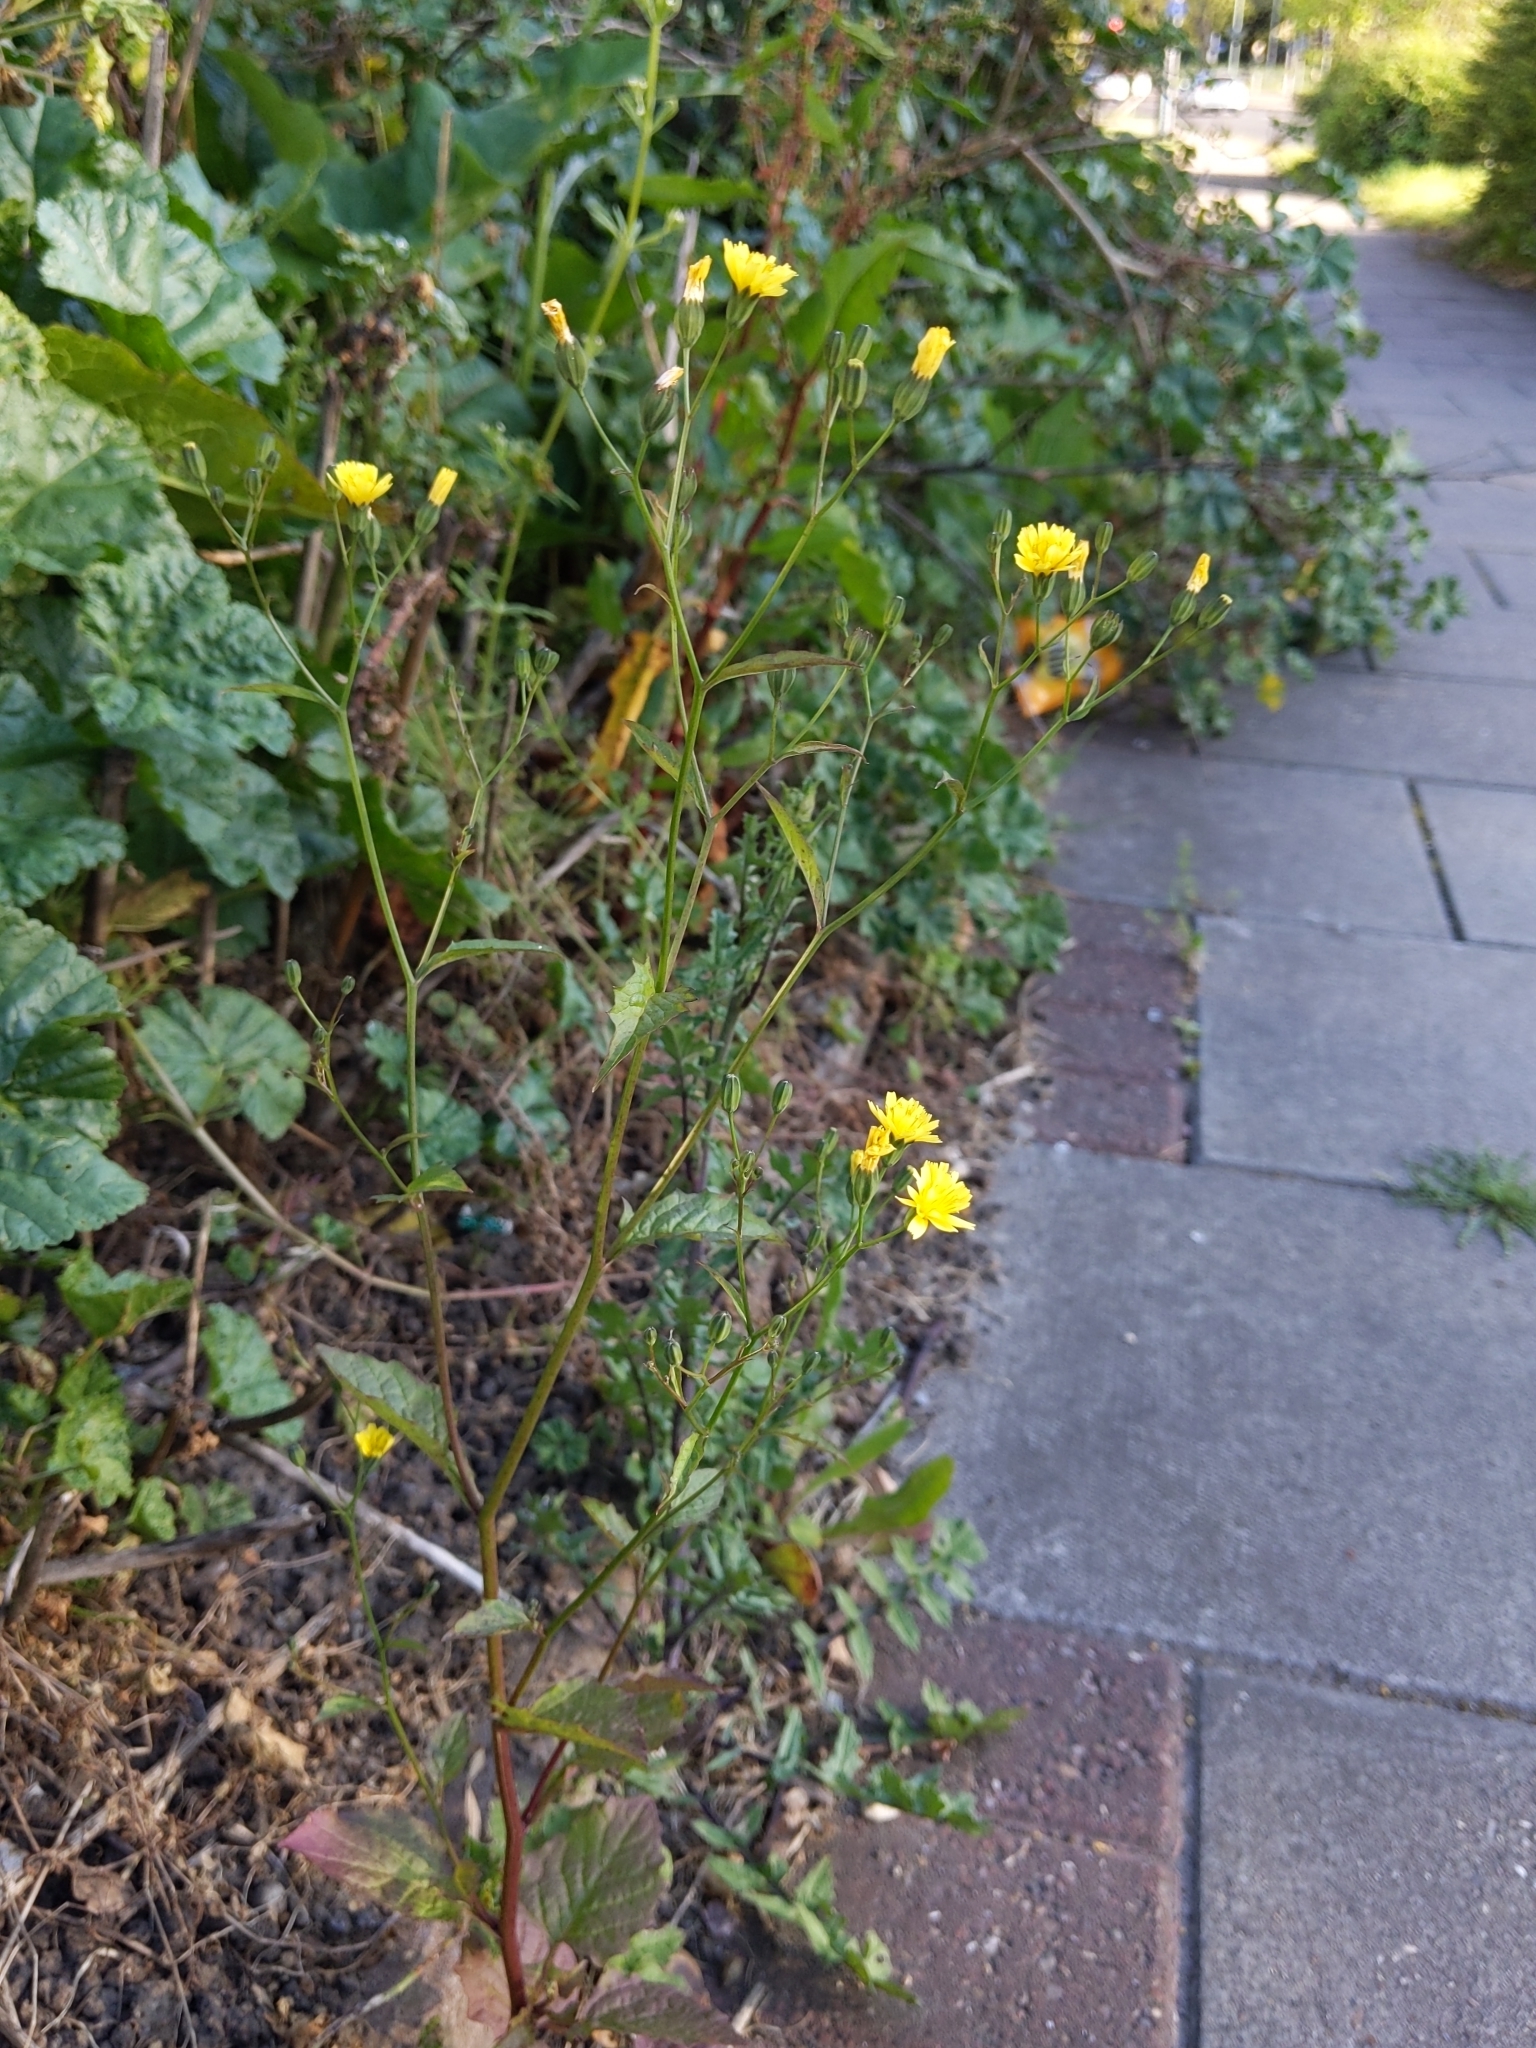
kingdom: Plantae
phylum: Tracheophyta
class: Magnoliopsida
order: Asterales
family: Asteraceae
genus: Lapsana
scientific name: Lapsana communis
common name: Nipplewort
